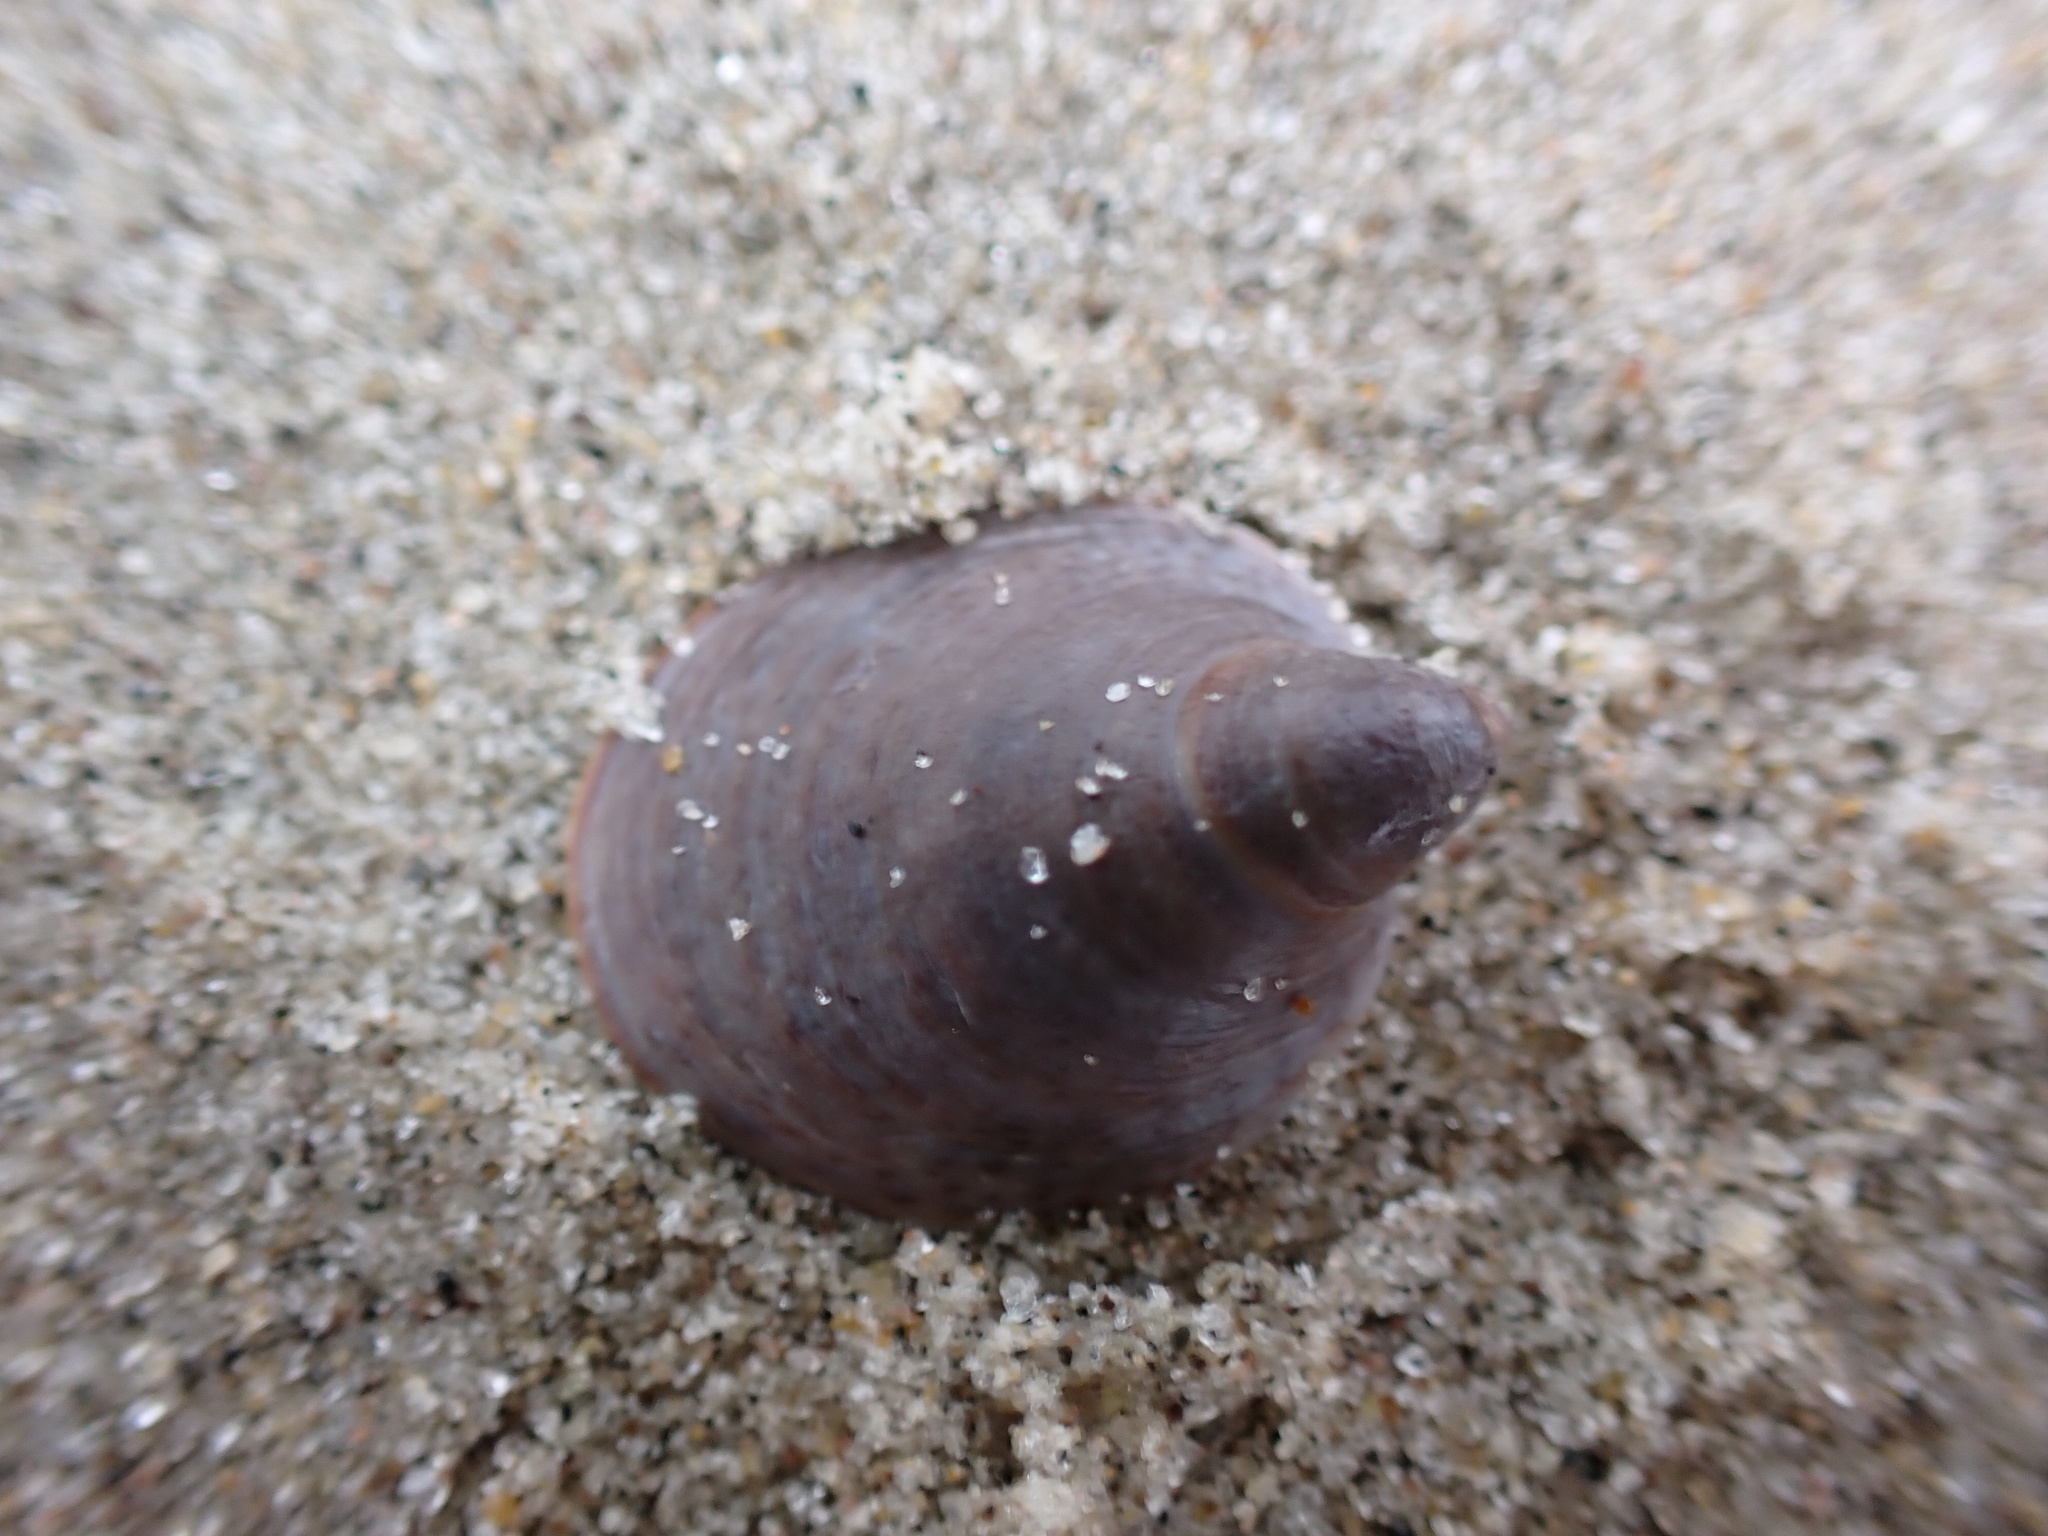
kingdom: Animalia
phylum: Mollusca
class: Gastropoda
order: Littorinimorpha
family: Calyptraeidae
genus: Crepidula
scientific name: Crepidula convexa
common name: Convex slippersnail
